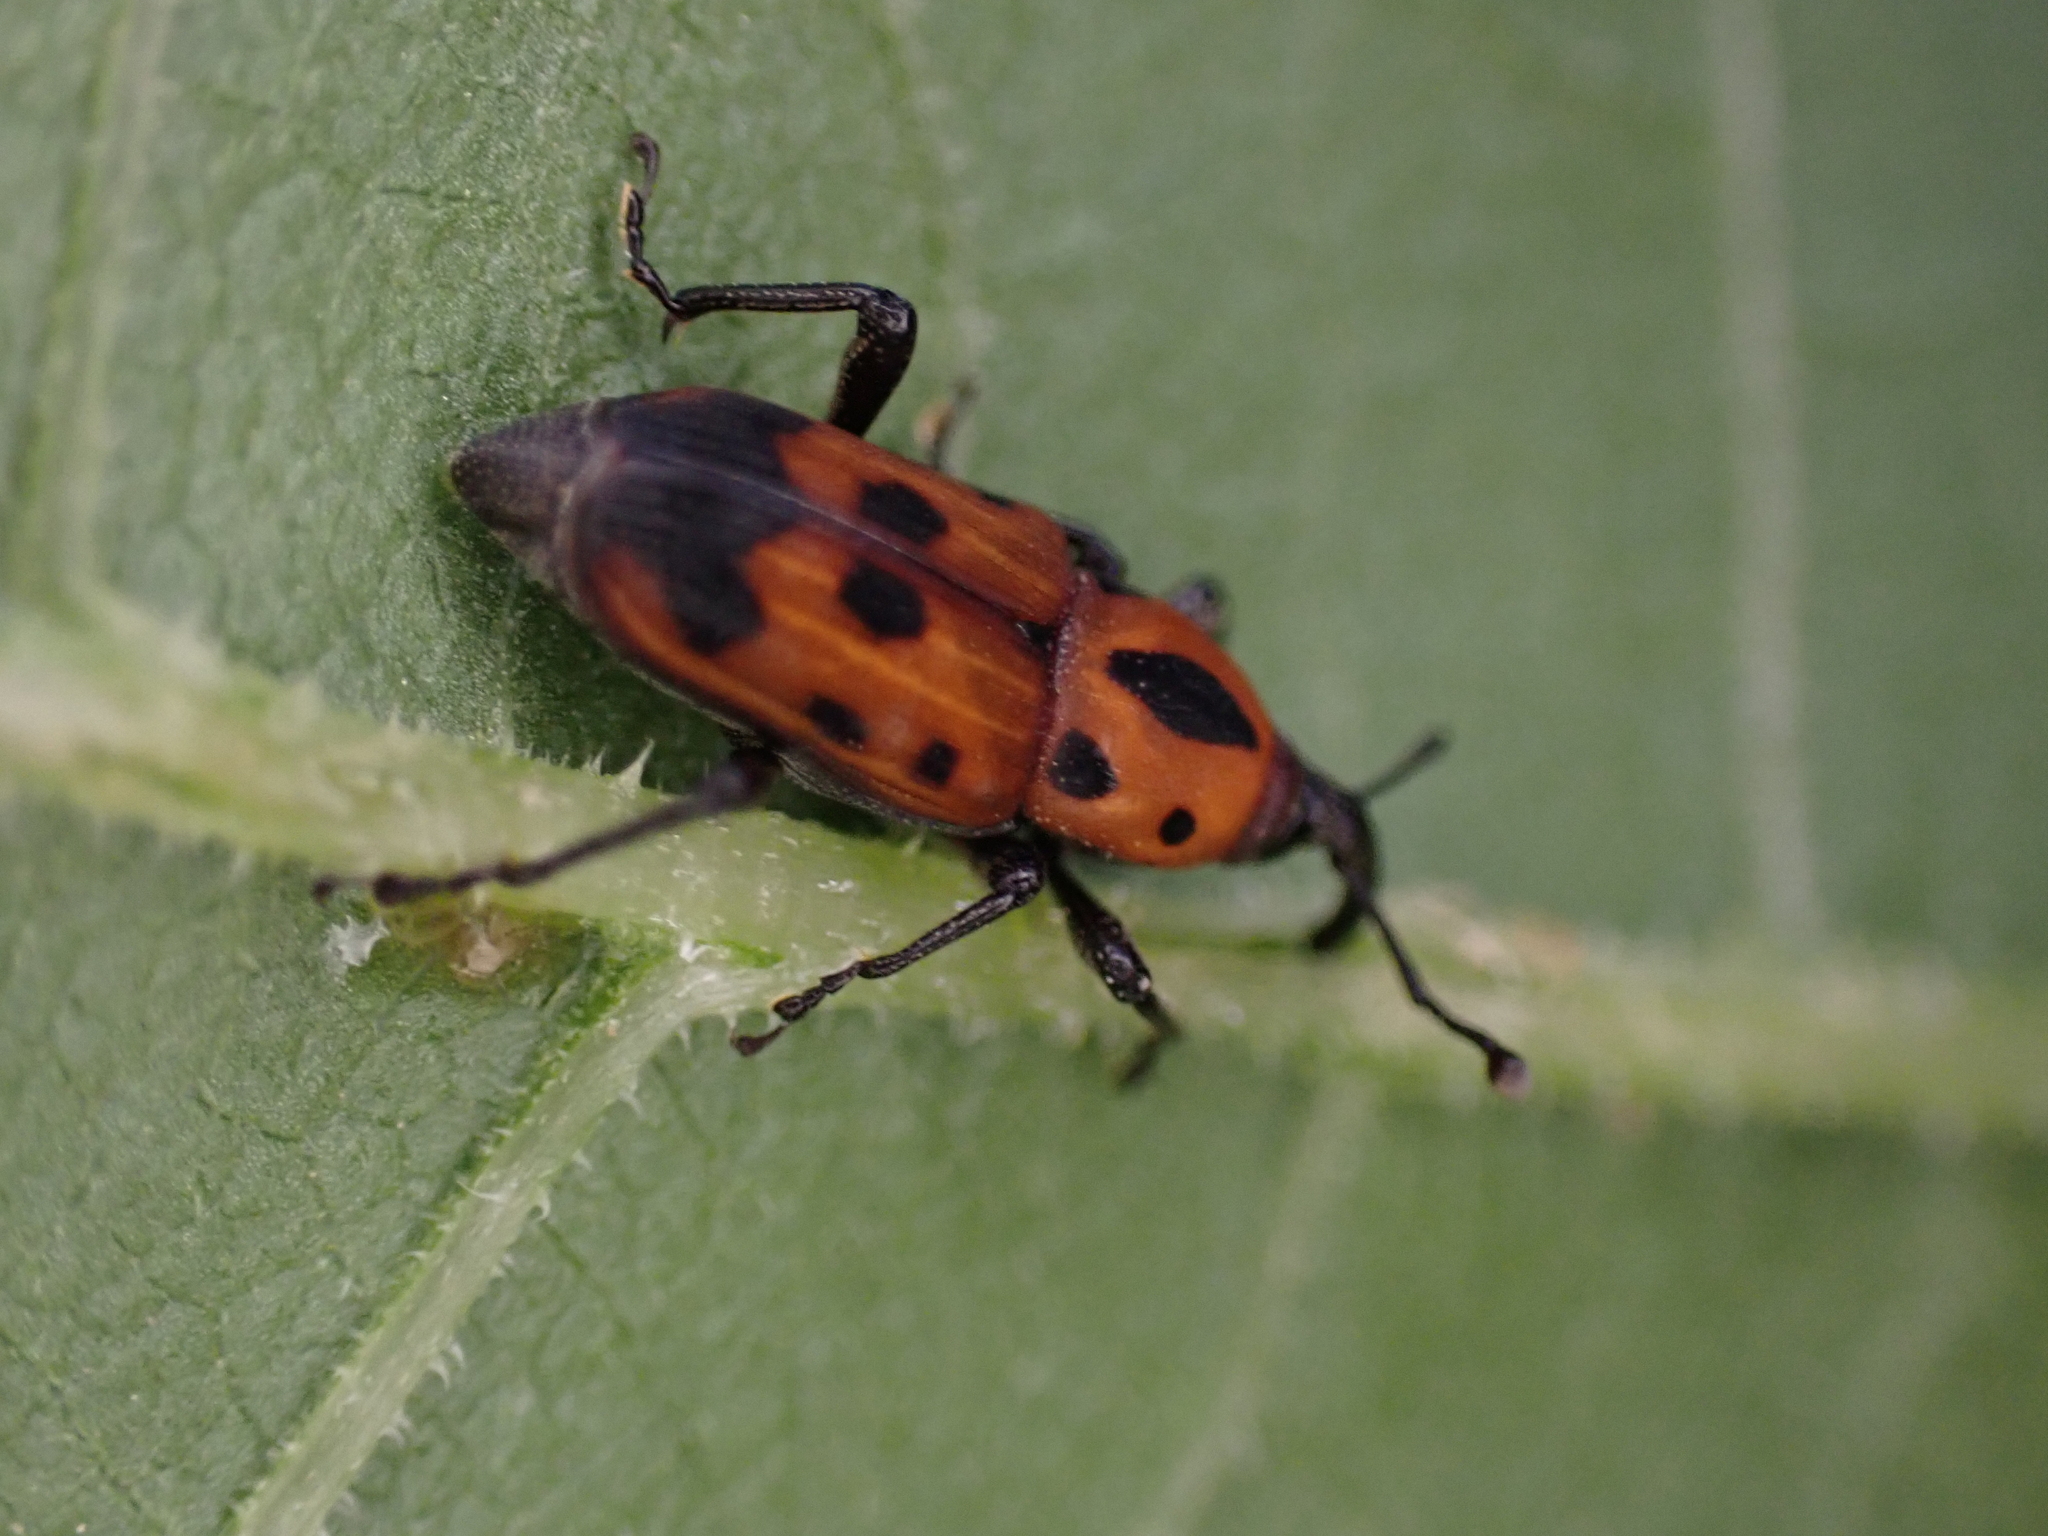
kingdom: Animalia
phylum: Arthropoda
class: Insecta
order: Coleoptera
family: Dryophthoridae
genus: Rhodobaenus
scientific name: Rhodobaenus quinquepunctatus
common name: Cocklebur weevil
